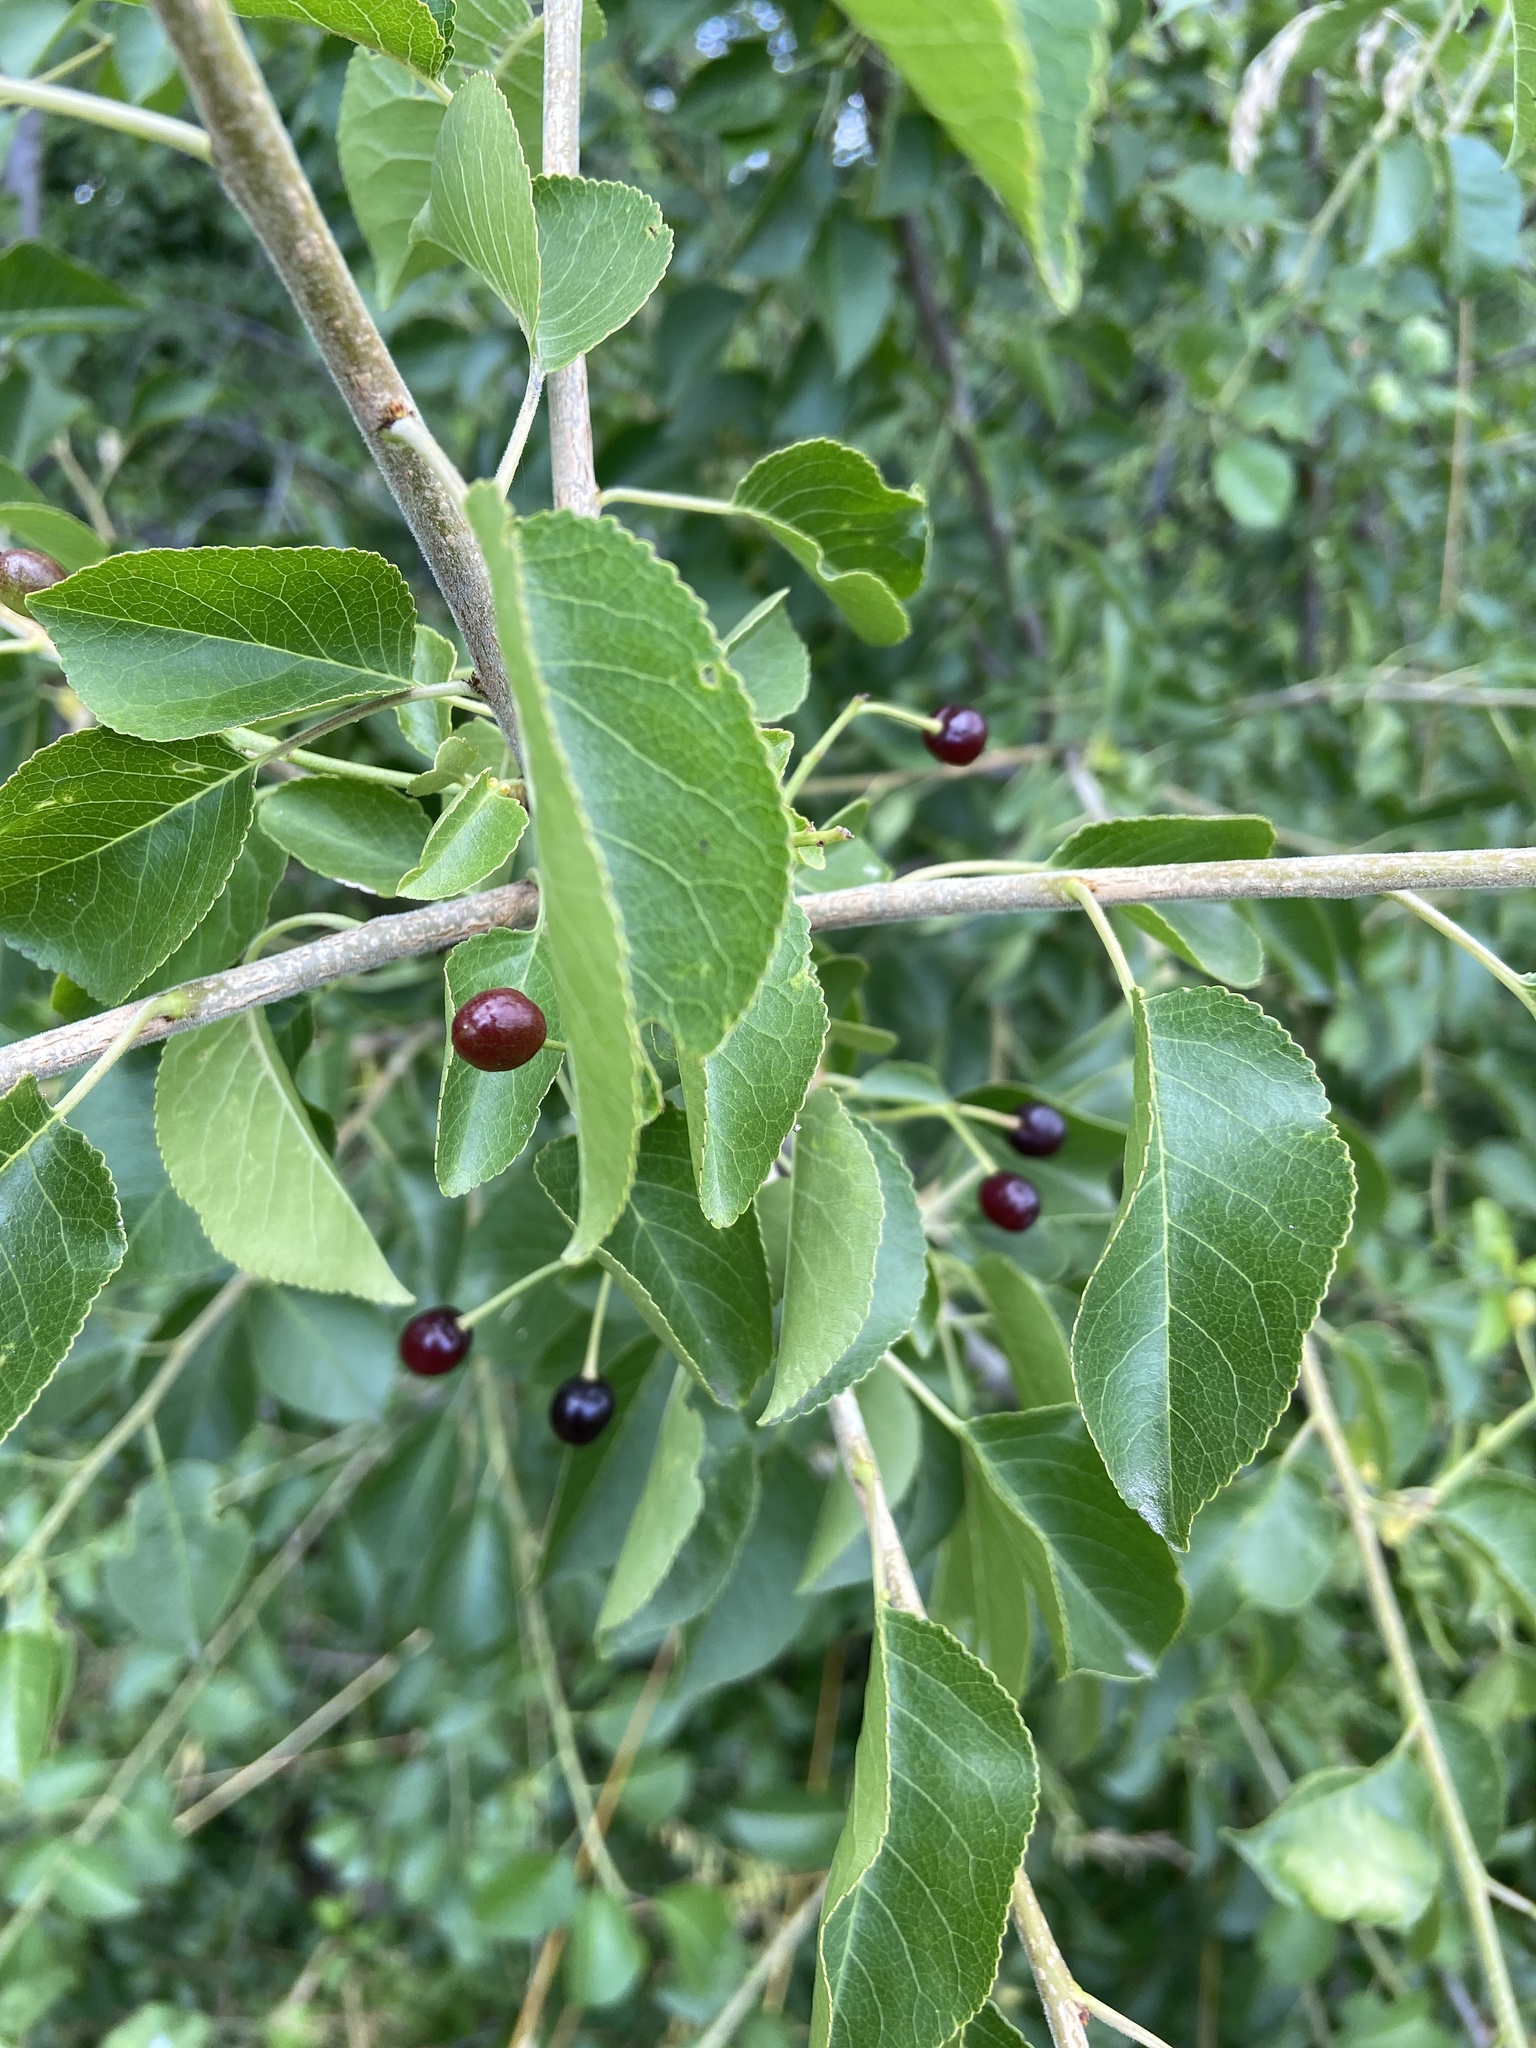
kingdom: Plantae
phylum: Tracheophyta
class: Magnoliopsida
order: Rosales
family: Rosaceae
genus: Prunus
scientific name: Prunus mahaleb
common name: Mahaleb cherry
